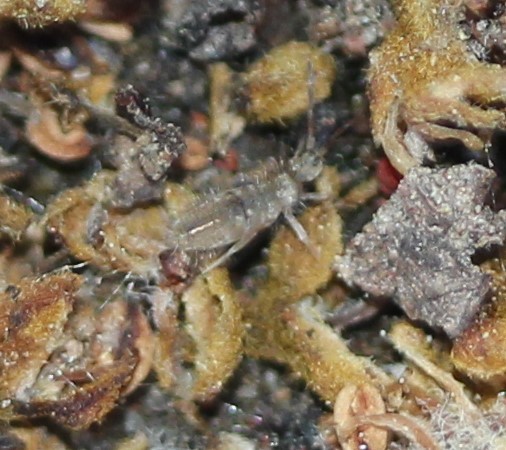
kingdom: Animalia
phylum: Arthropoda
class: Collembola
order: Entomobryomorpha
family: Entomobryidae
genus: Entomobrya
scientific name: Entomobrya unostrigata
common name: Springtail
